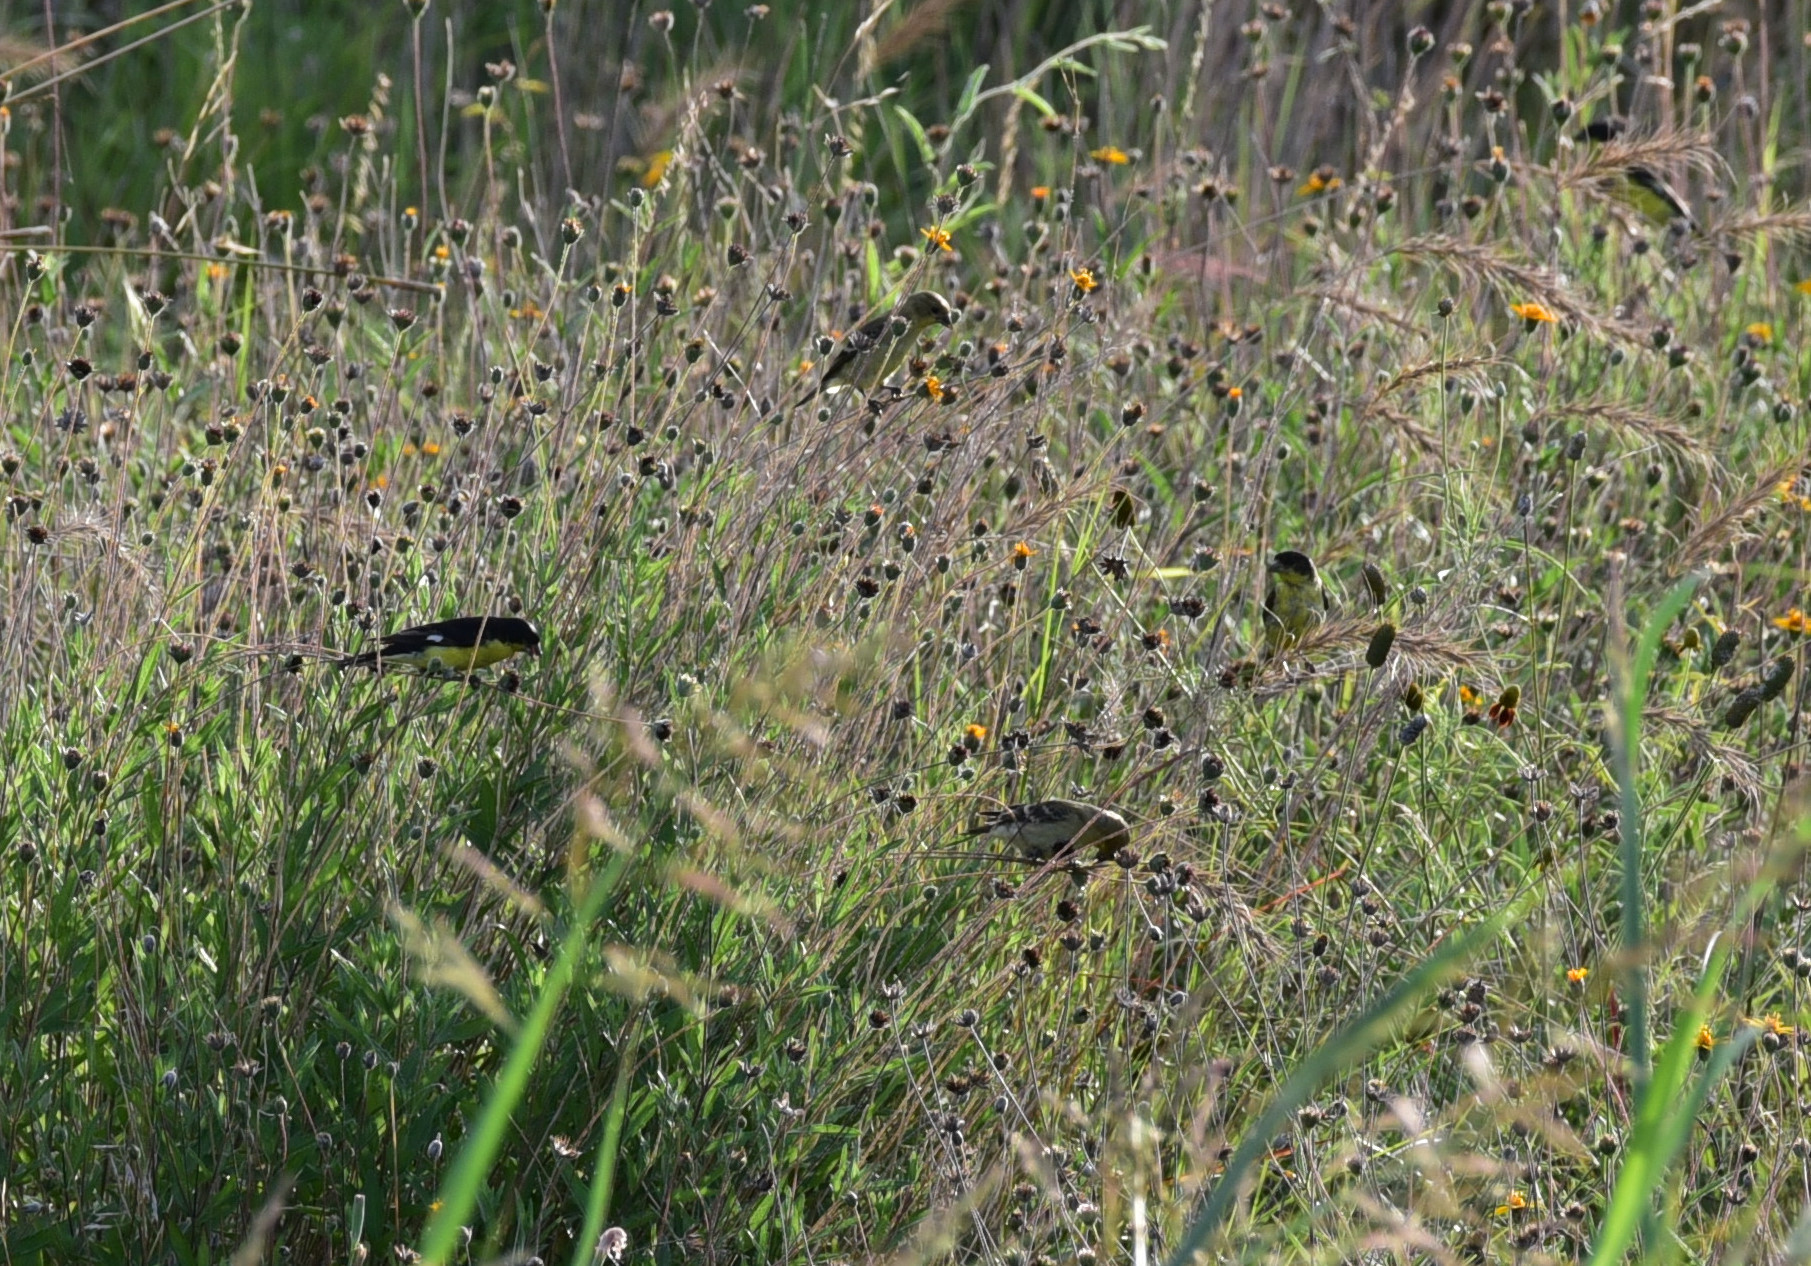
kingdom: Animalia
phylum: Chordata
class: Aves
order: Passeriformes
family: Fringillidae
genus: Spinus
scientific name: Spinus psaltria
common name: Lesser goldfinch
